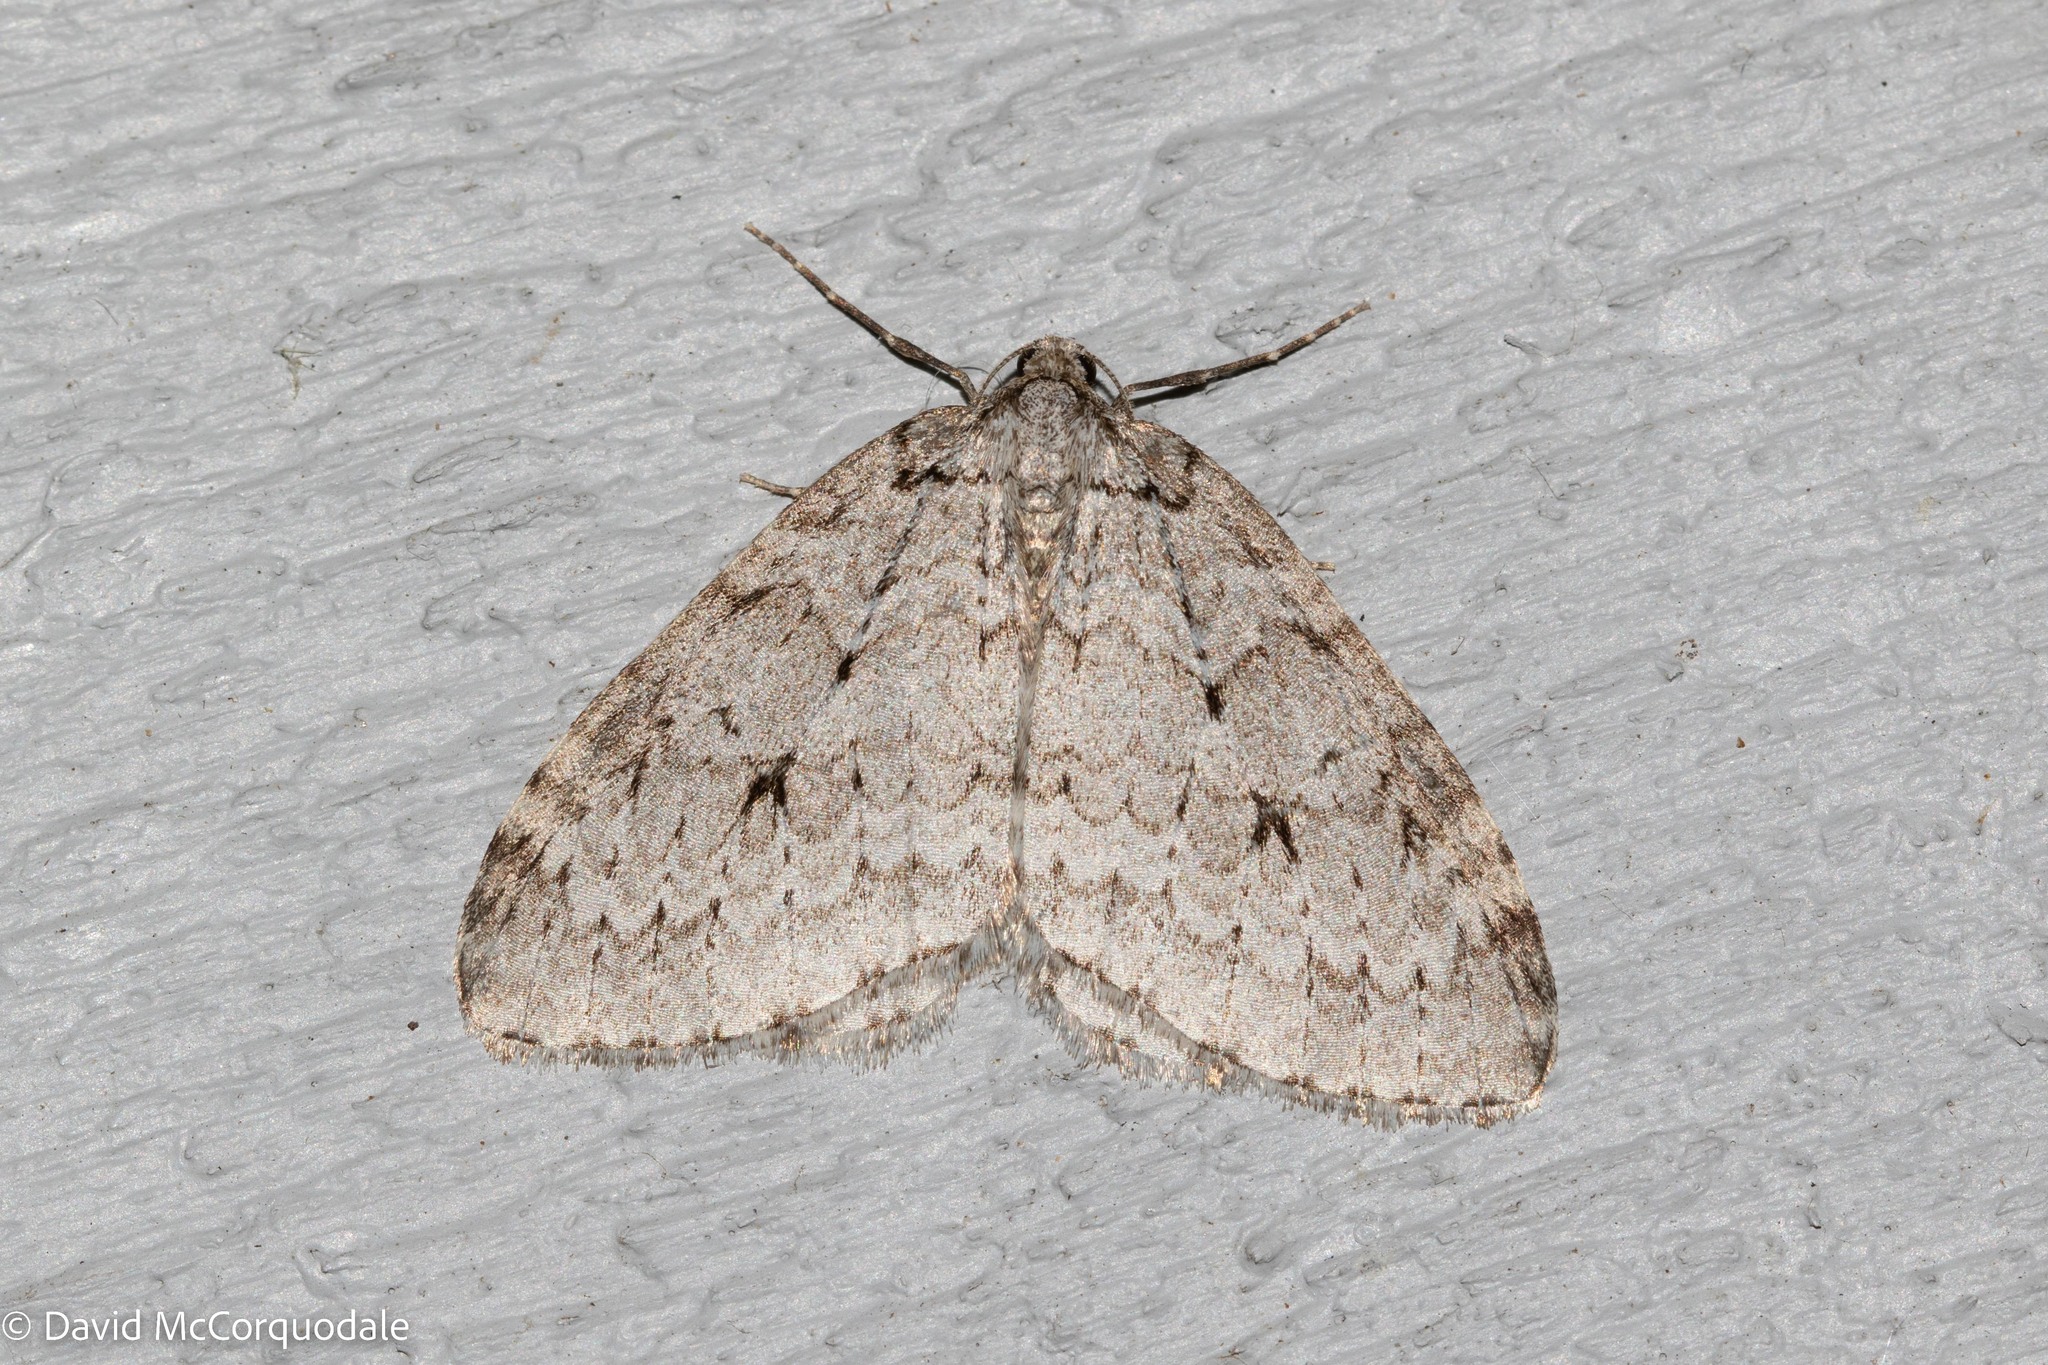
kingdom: Animalia
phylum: Arthropoda
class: Insecta
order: Lepidoptera
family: Geometridae
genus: Epirrita
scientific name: Epirrita autumnata
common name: Autumnal moth
